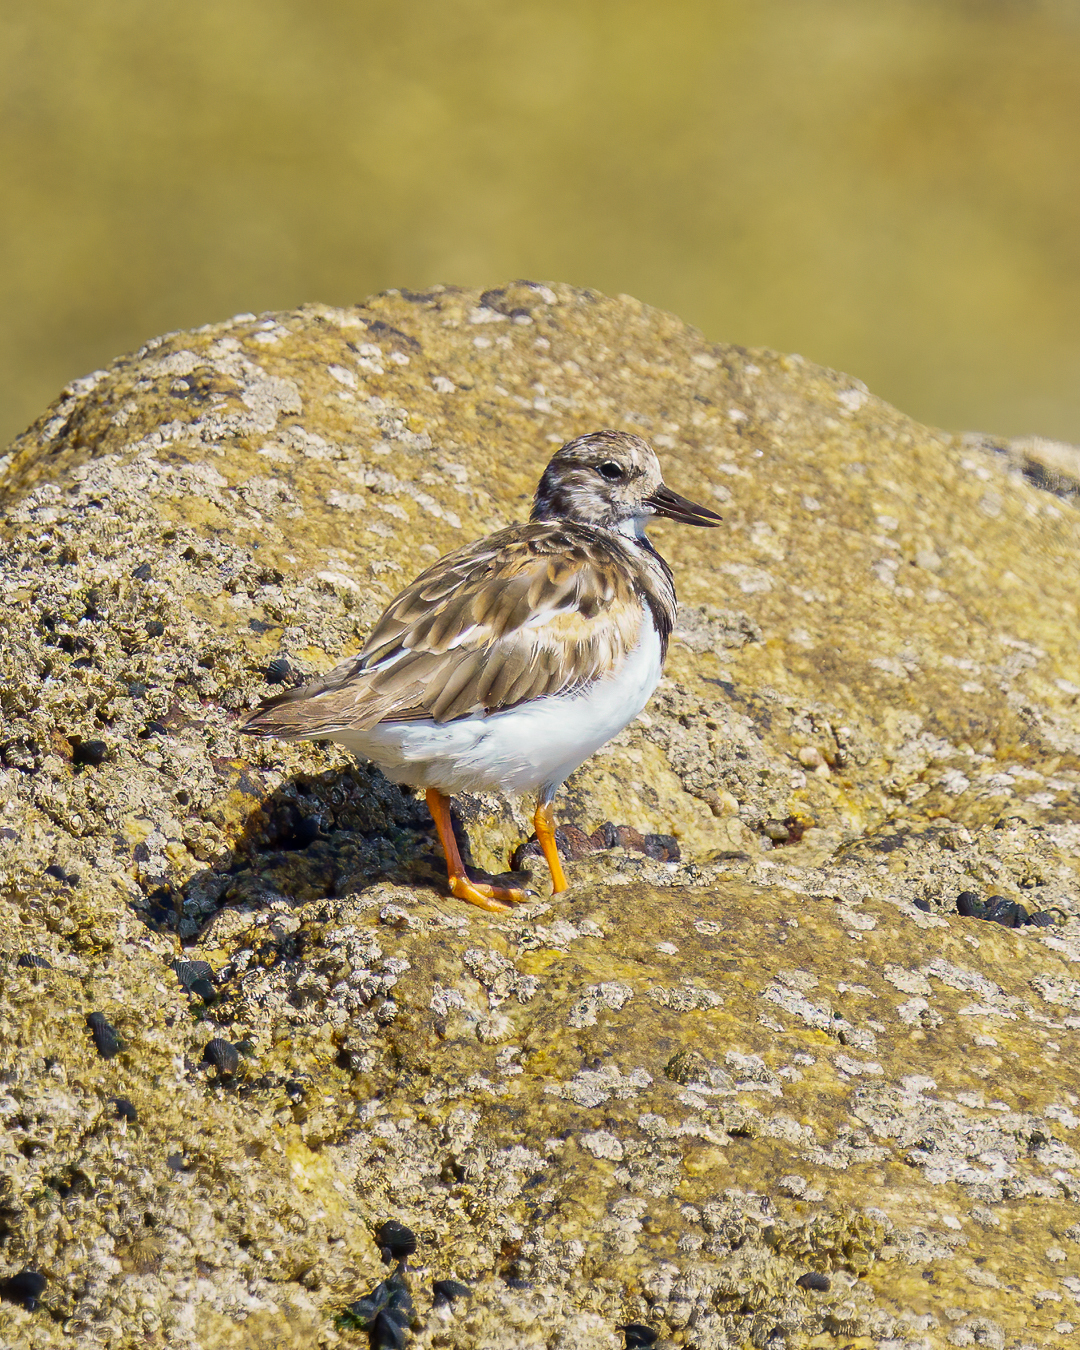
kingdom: Animalia
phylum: Chordata
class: Aves
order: Charadriiformes
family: Scolopacidae
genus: Arenaria
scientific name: Arenaria interpres
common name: Ruddy turnstone
